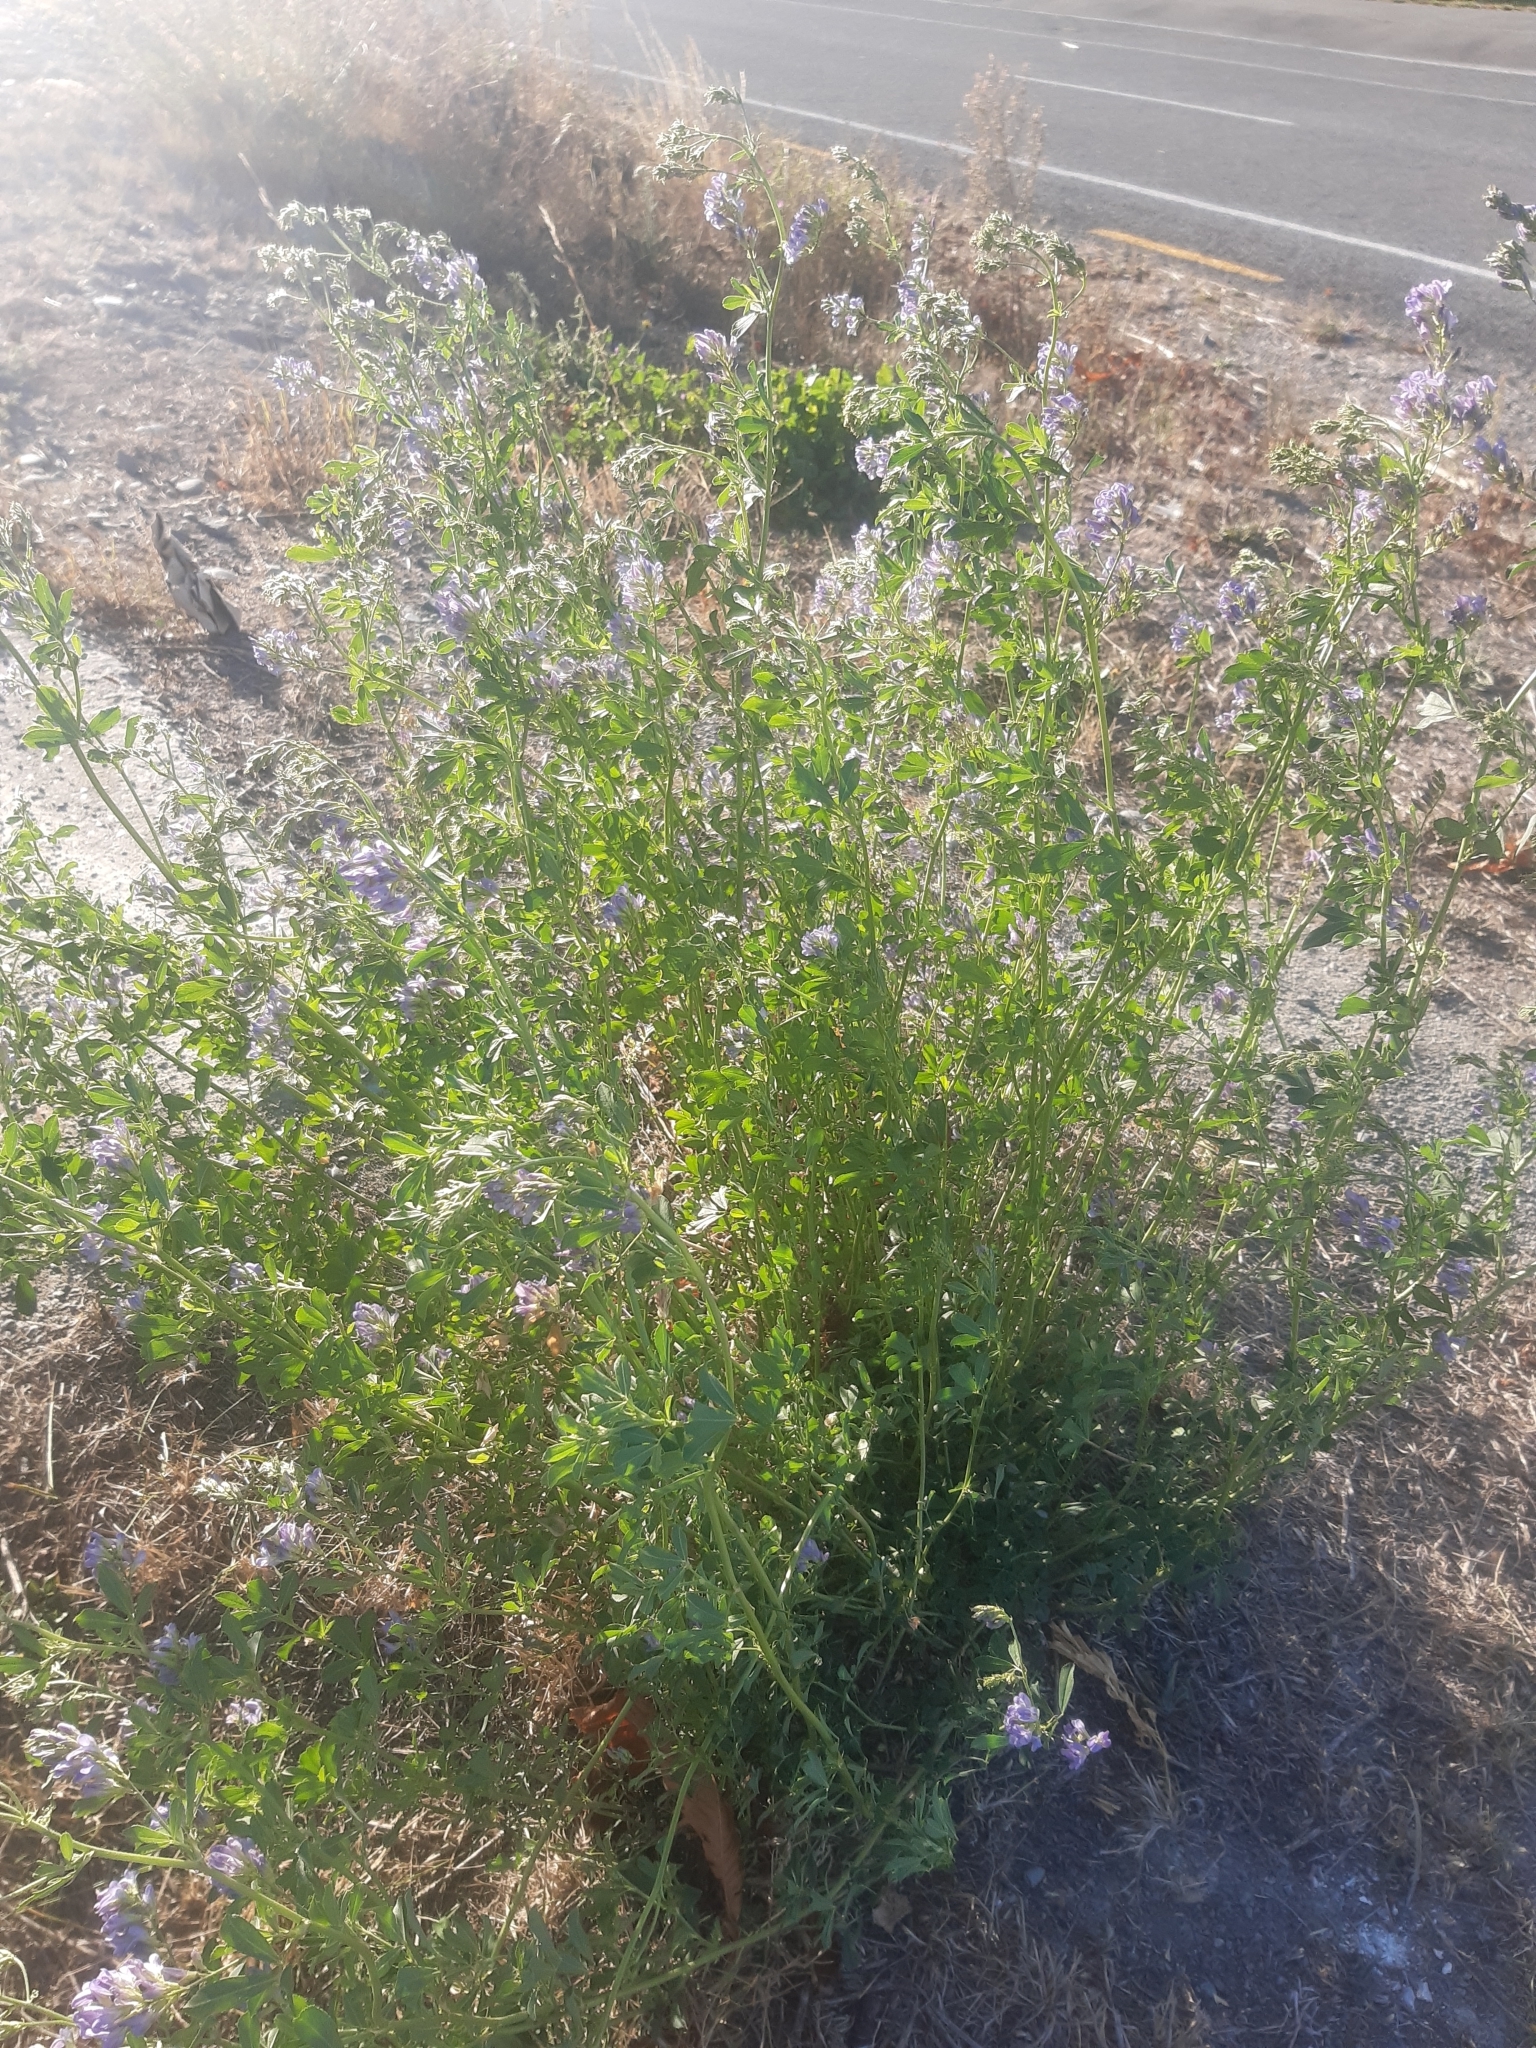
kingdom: Plantae
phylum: Tracheophyta
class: Magnoliopsida
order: Fabales
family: Fabaceae
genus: Medicago
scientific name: Medicago sativa
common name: Alfalfa
